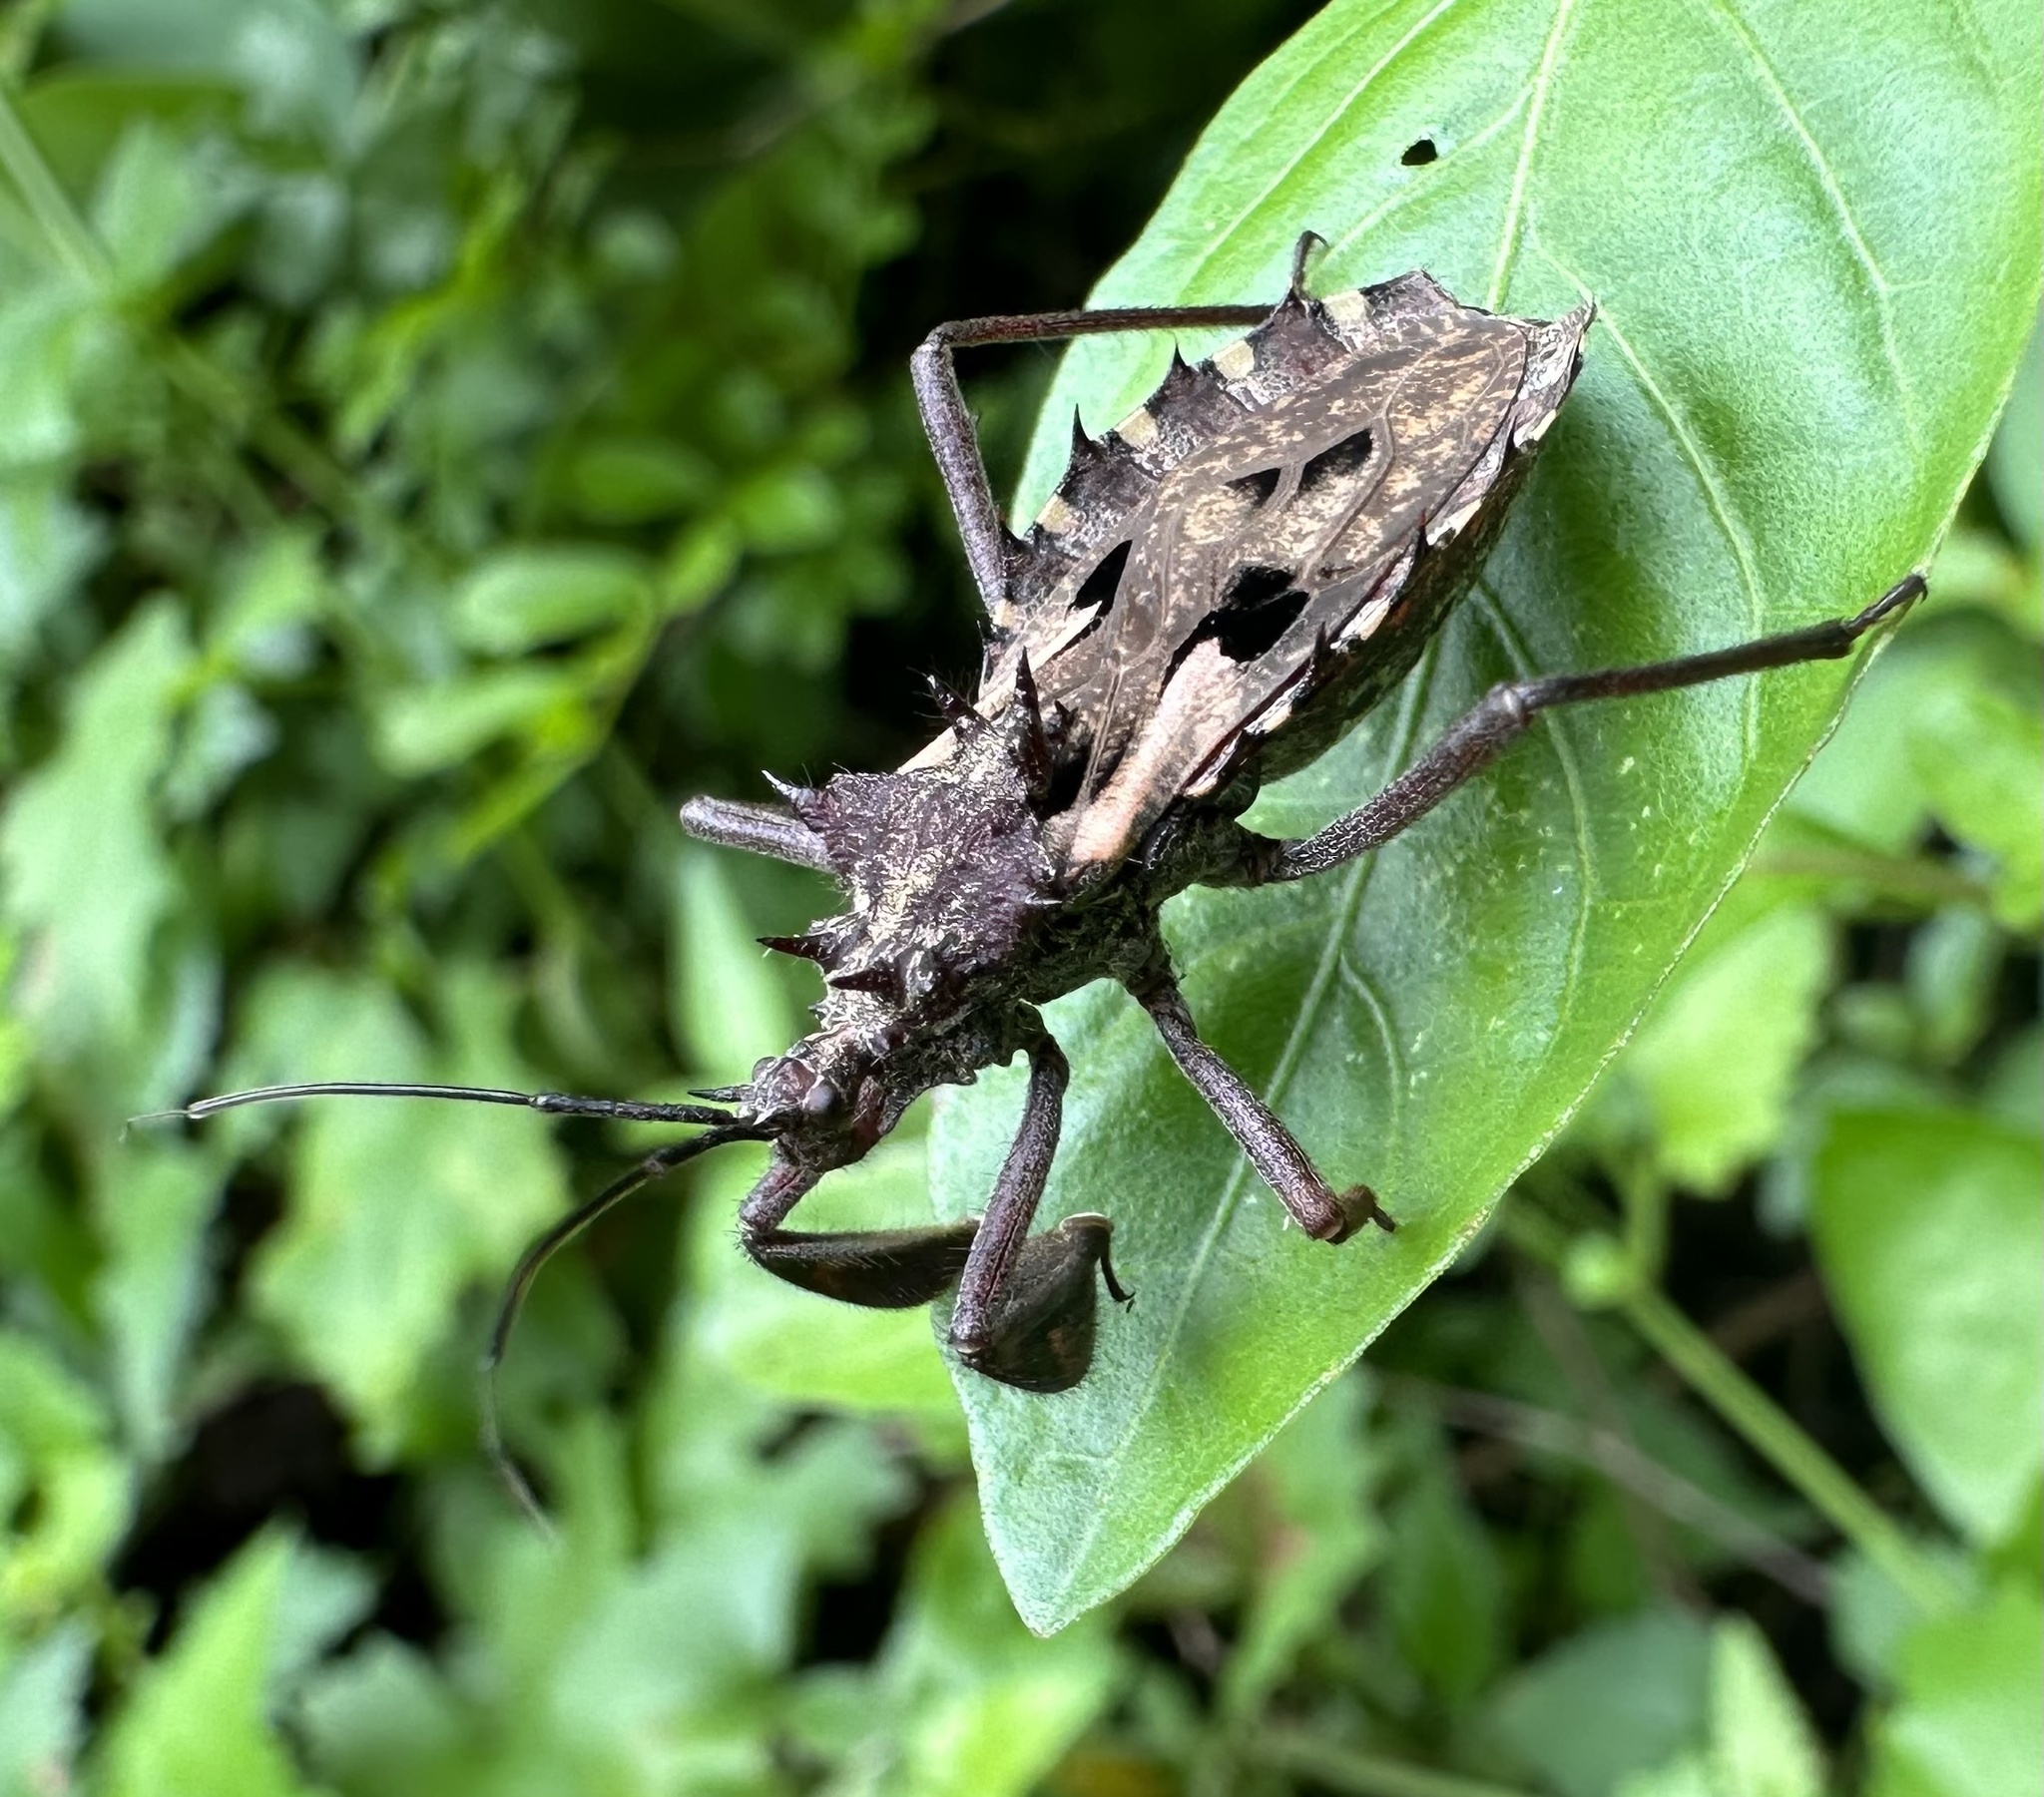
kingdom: Animalia
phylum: Arthropoda
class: Insecta
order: Hemiptera
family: Reduviidae
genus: Platychiria
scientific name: Platychiria umbrosa
